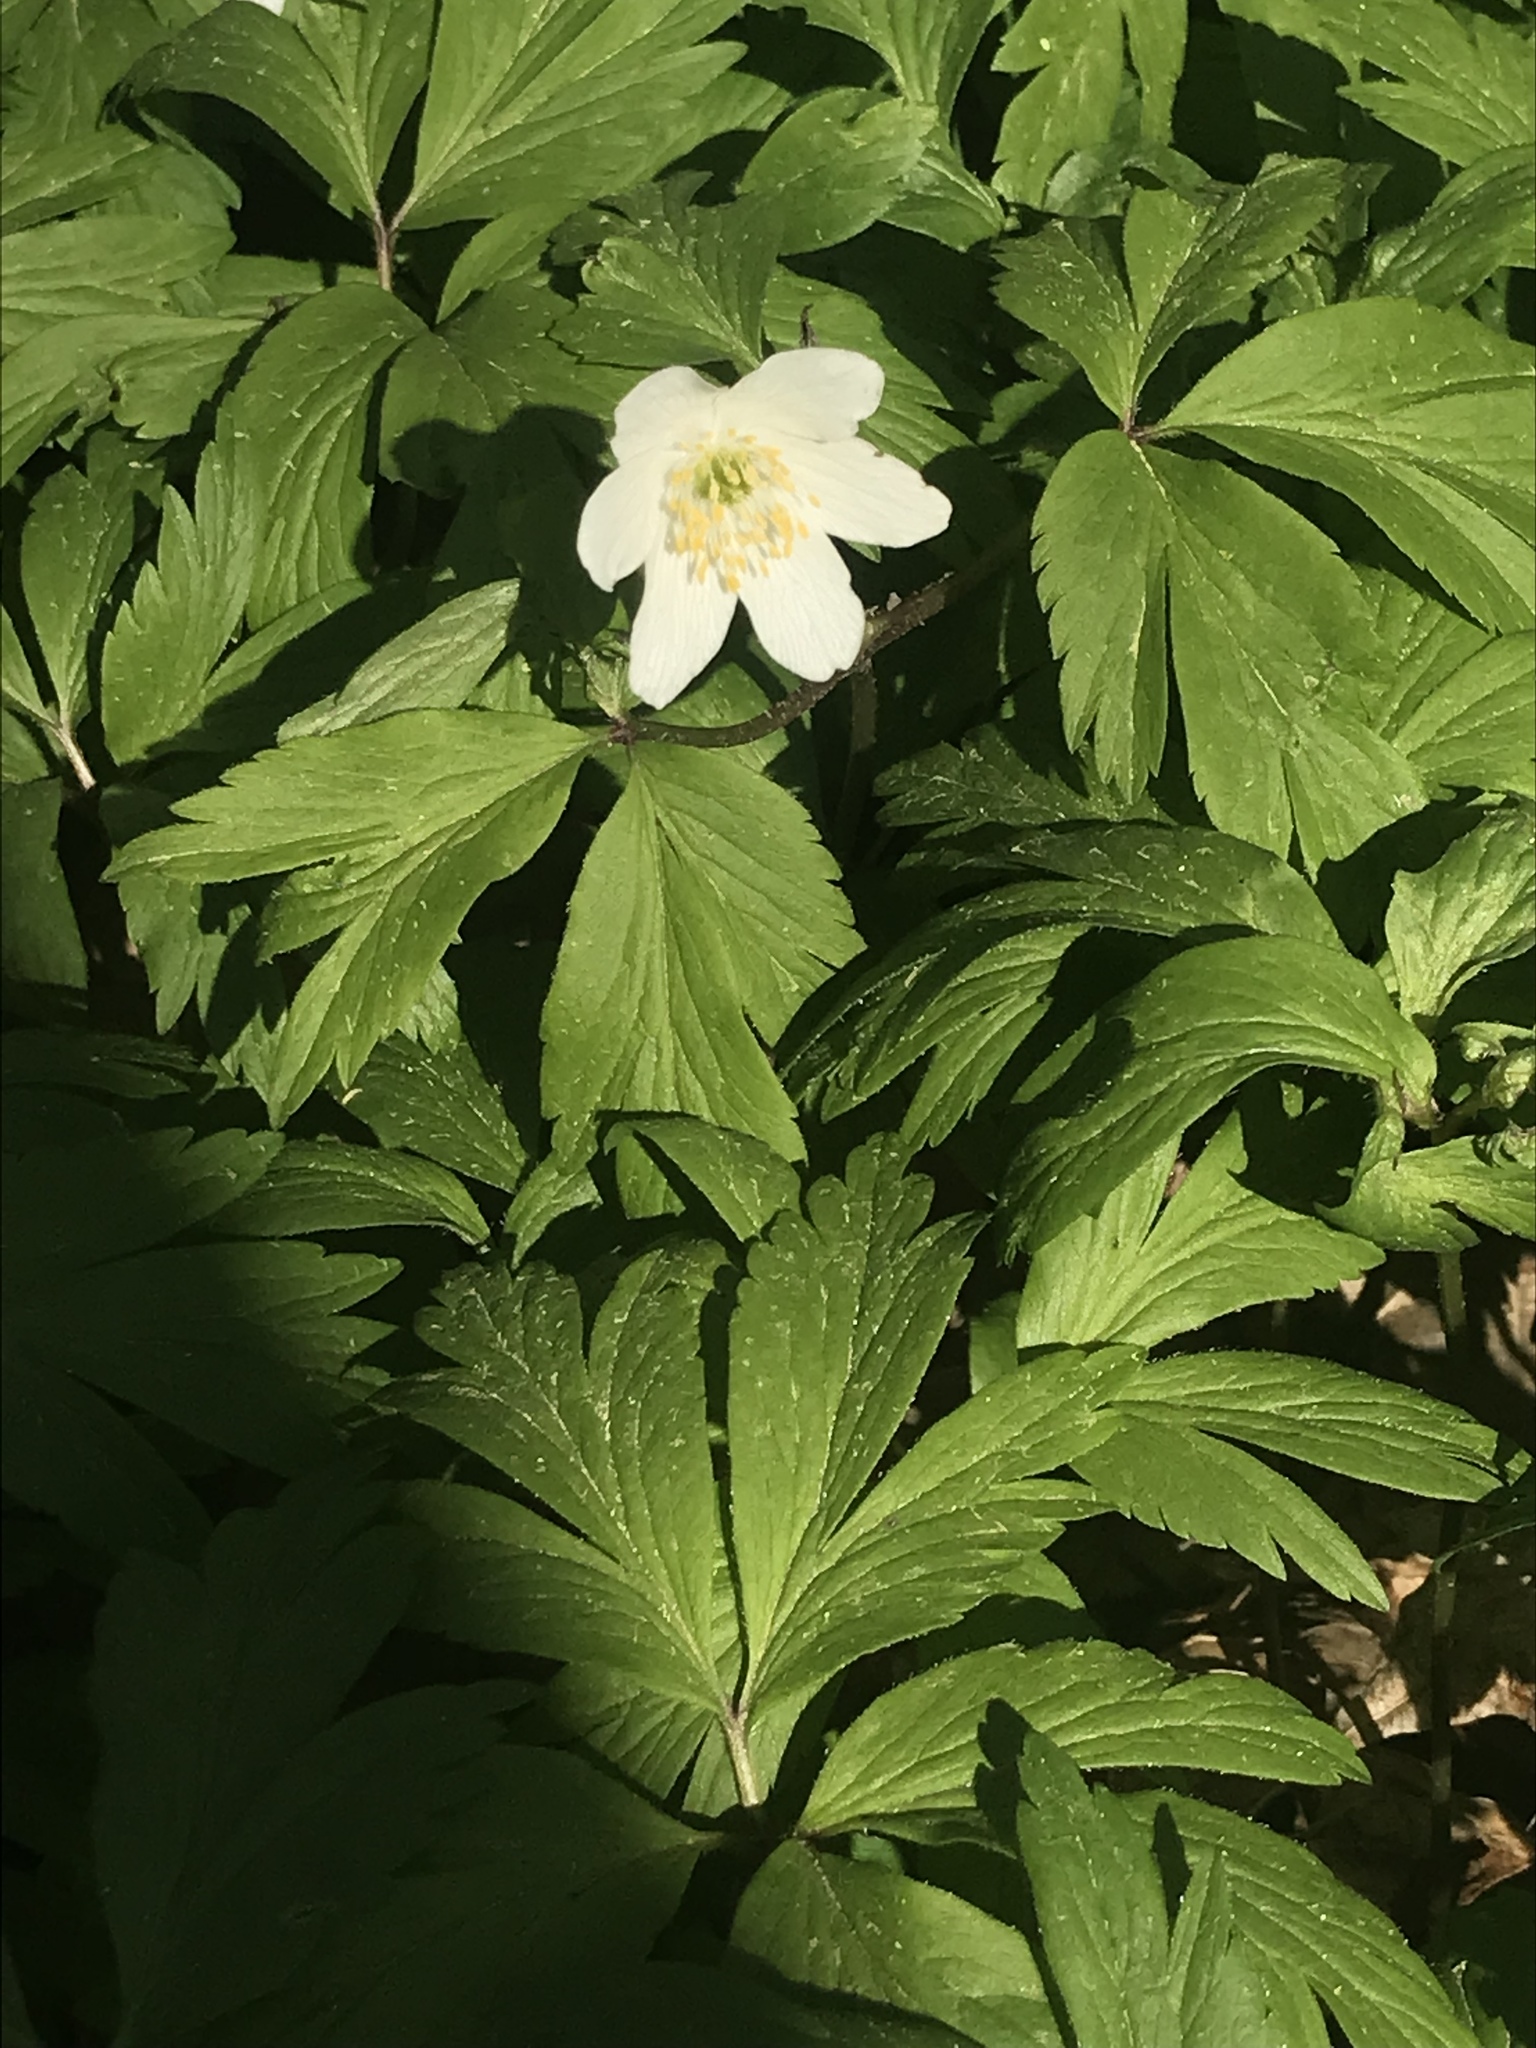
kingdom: Plantae
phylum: Tracheophyta
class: Magnoliopsida
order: Ranunculales
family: Ranunculaceae
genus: Anemone
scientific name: Anemone nemorosa
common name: Wood anemone
